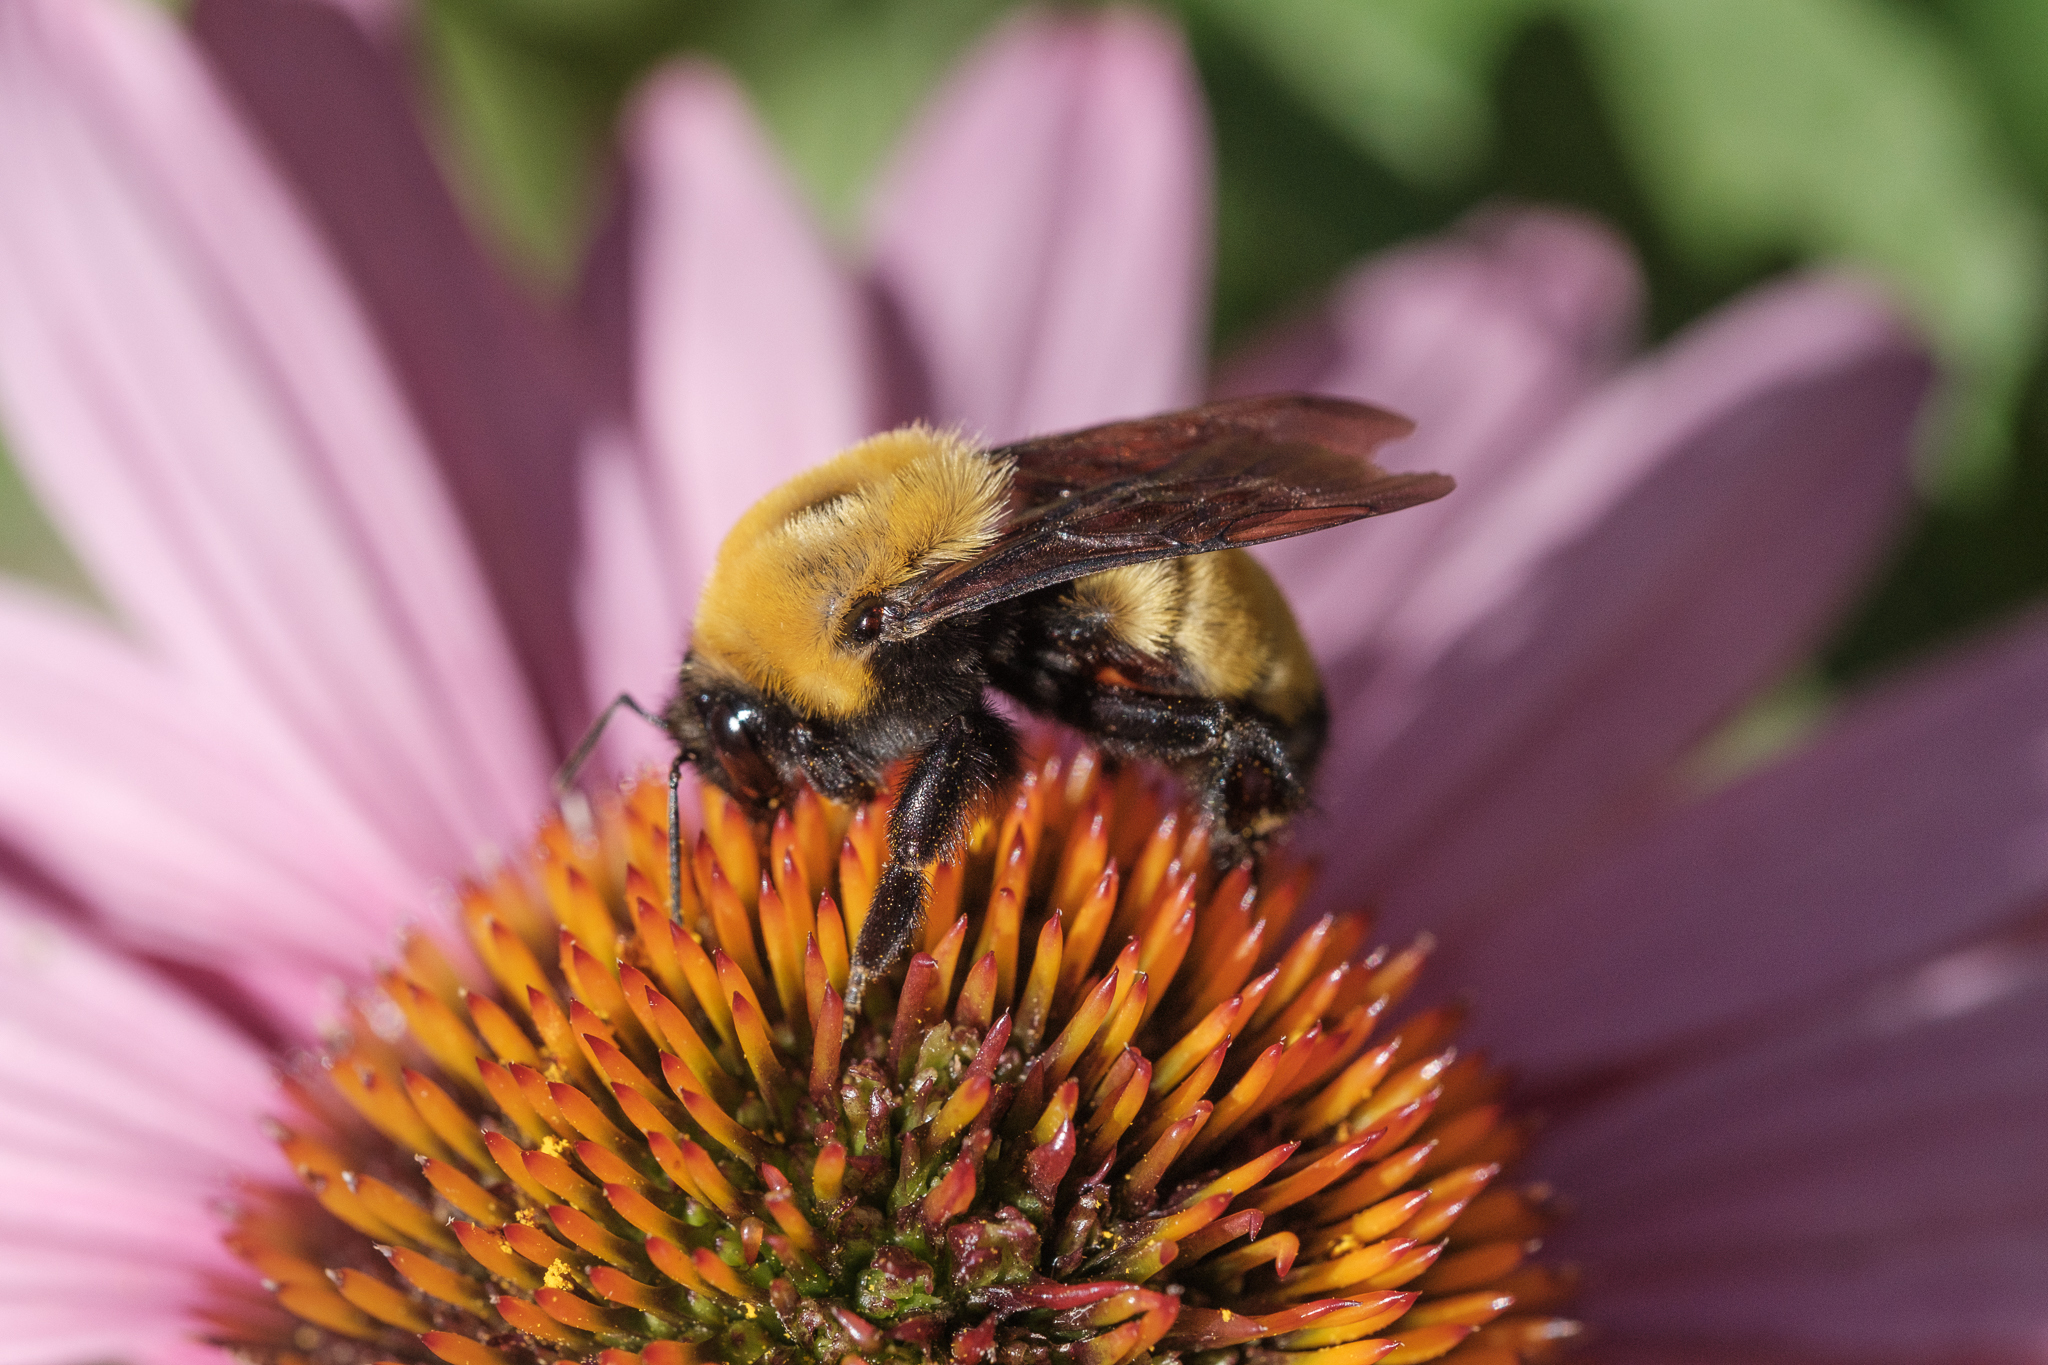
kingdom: Animalia
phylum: Arthropoda
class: Insecta
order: Hymenoptera
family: Apidae
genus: Bombus
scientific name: Bombus morrisoni
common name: Morrison bumble bee
